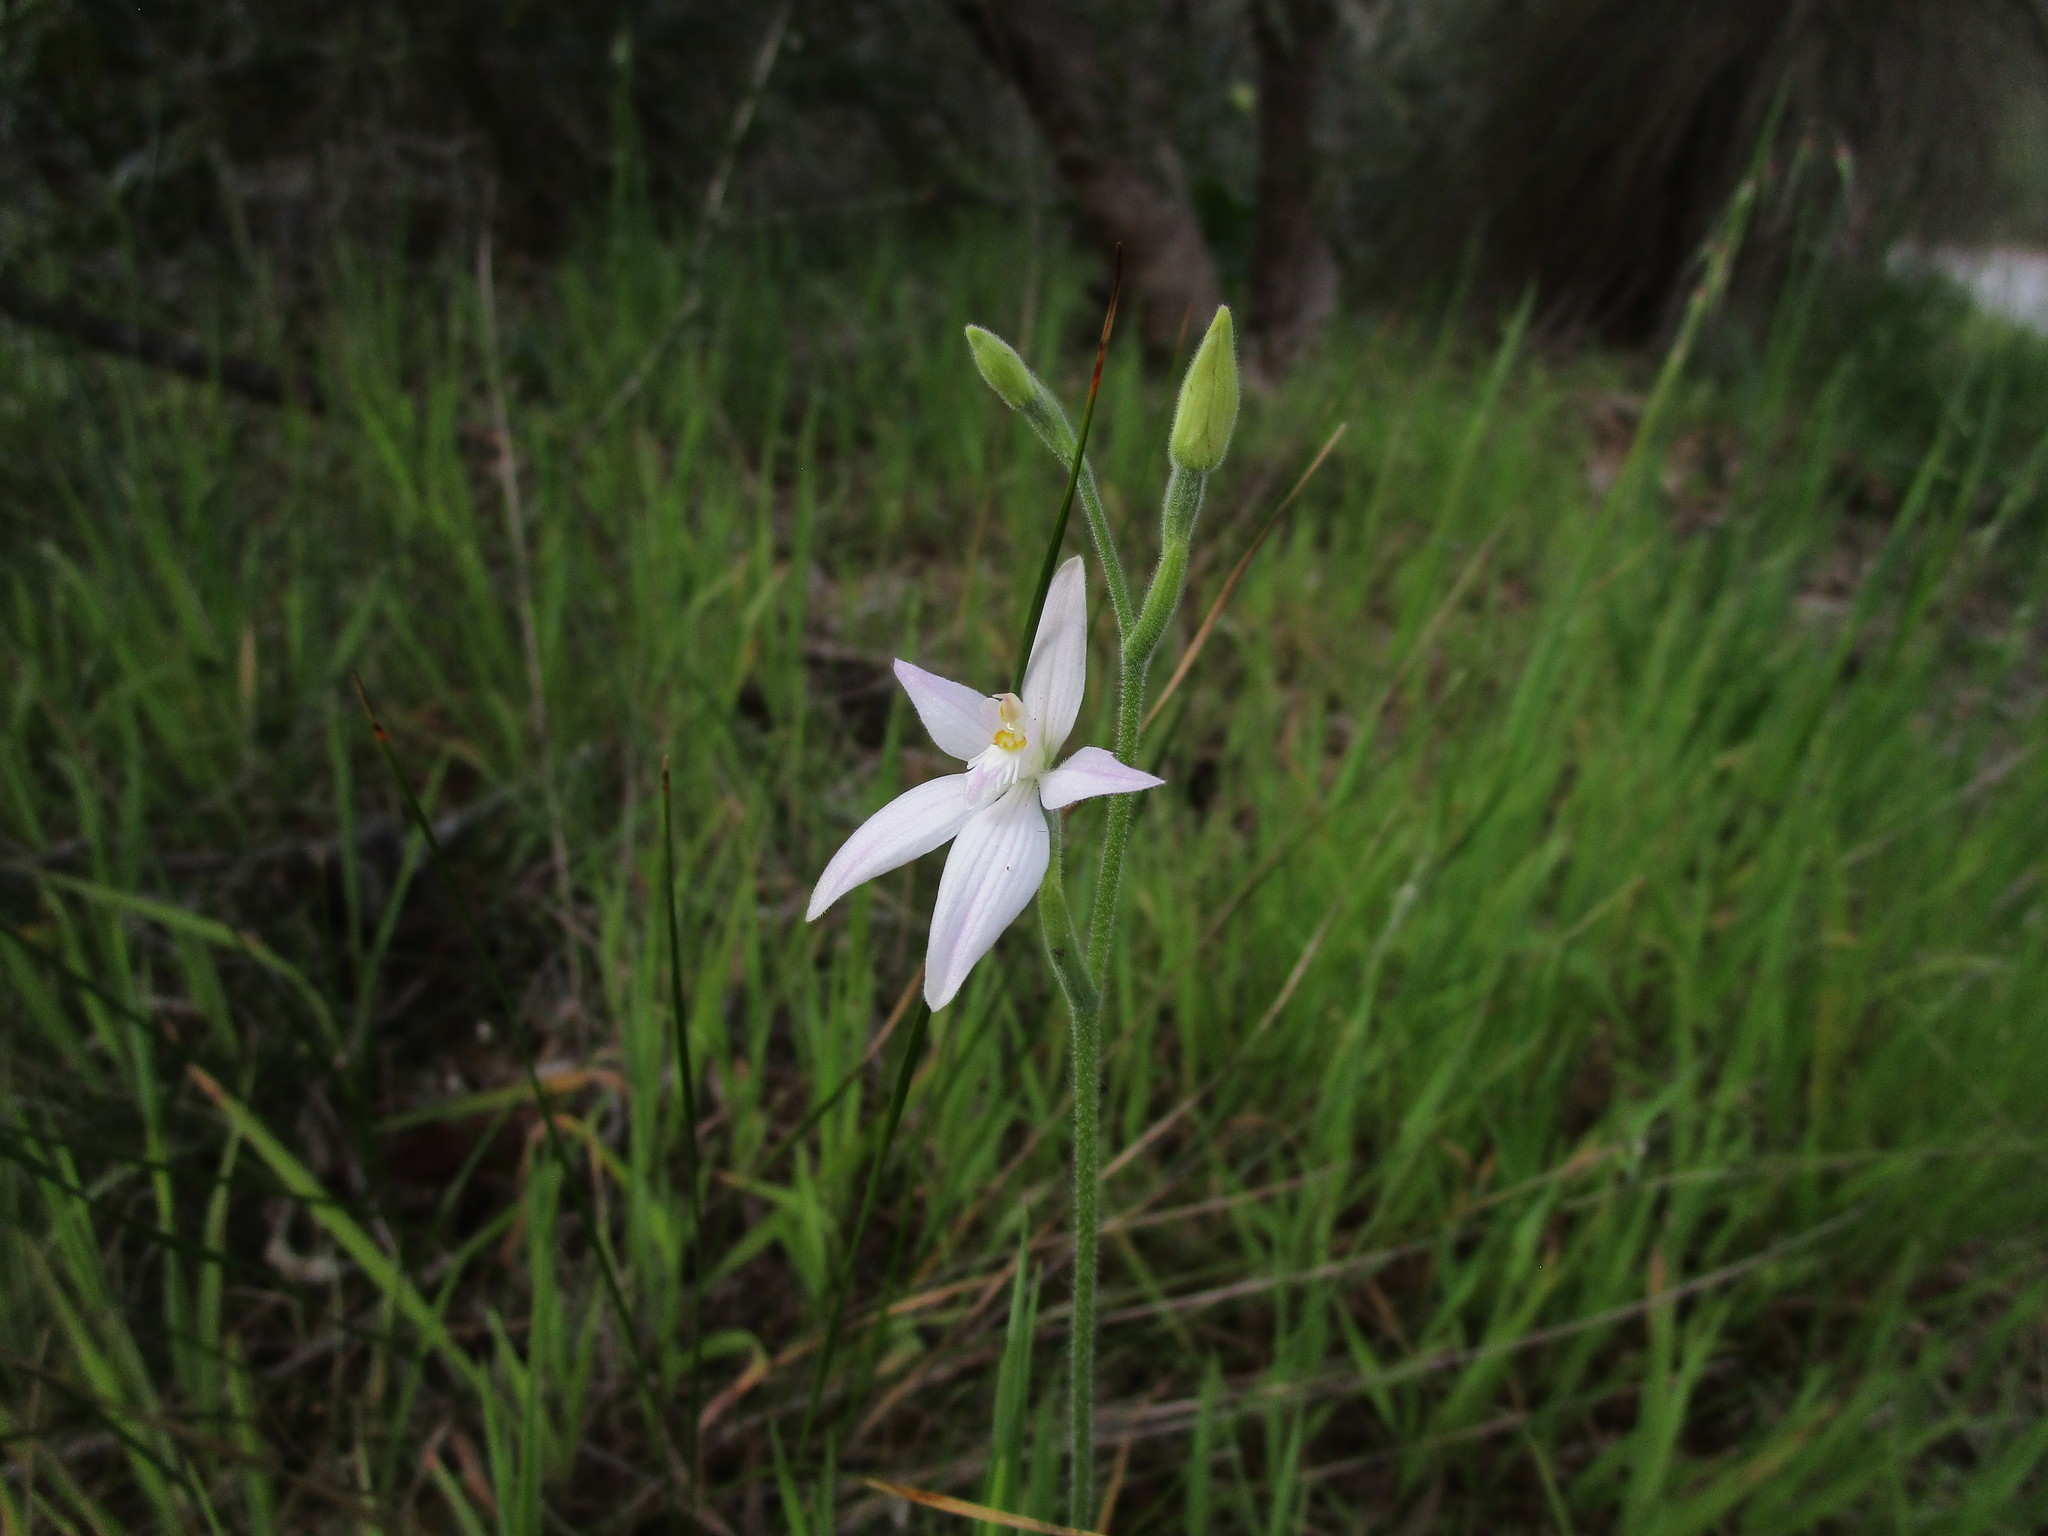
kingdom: Plantae
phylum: Tracheophyta
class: Liliopsida
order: Asparagales
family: Orchidaceae
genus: Caladenia
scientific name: Caladenia latifolia
